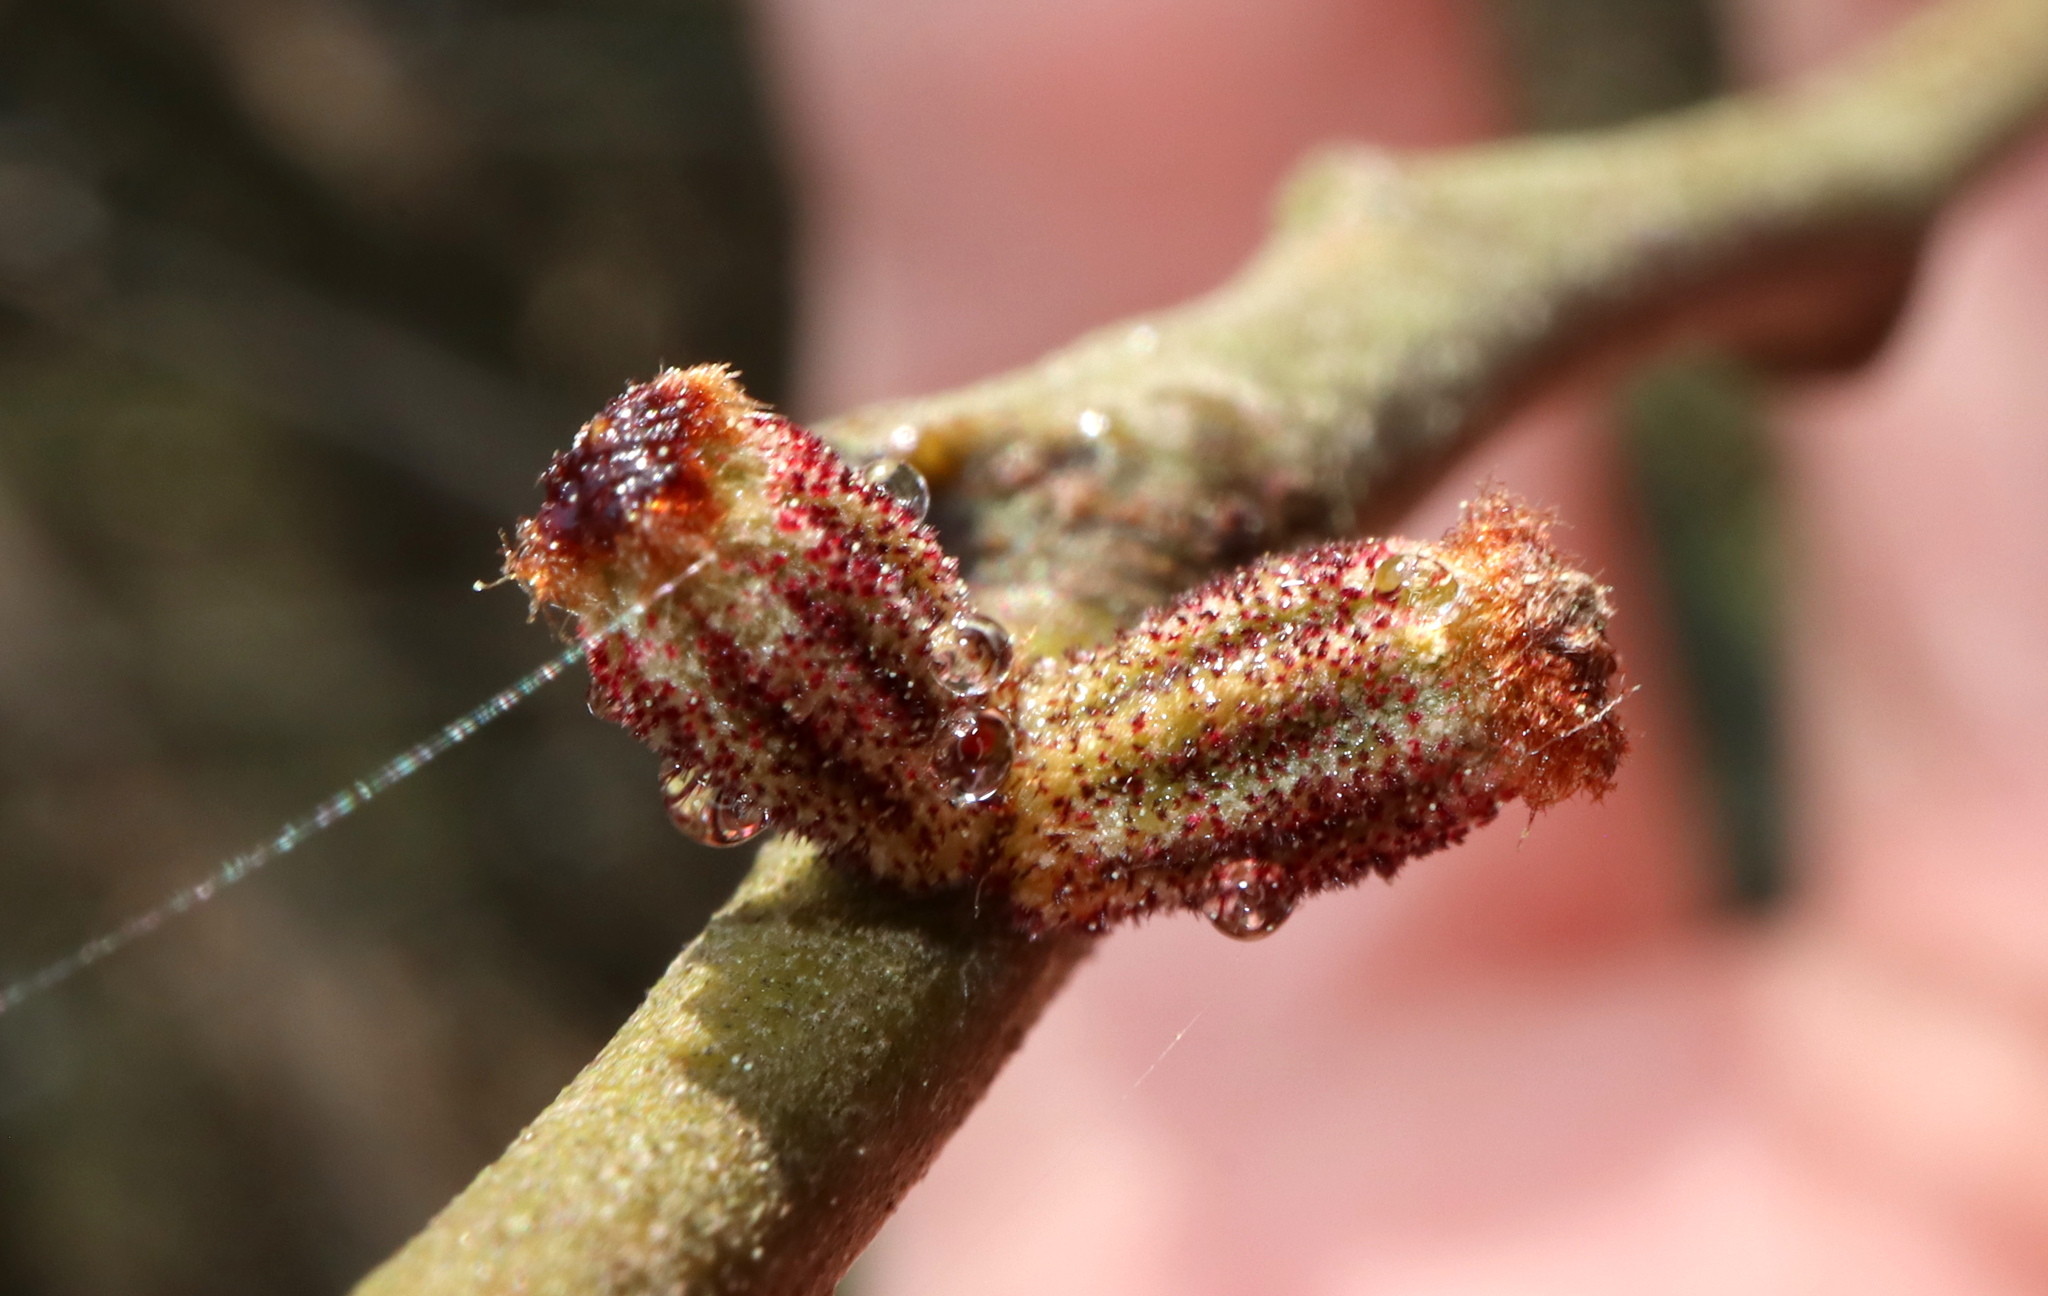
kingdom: Animalia
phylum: Arthropoda
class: Insecta
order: Hymenoptera
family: Cynipidae
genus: Callirhytis
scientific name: Callirhytis
